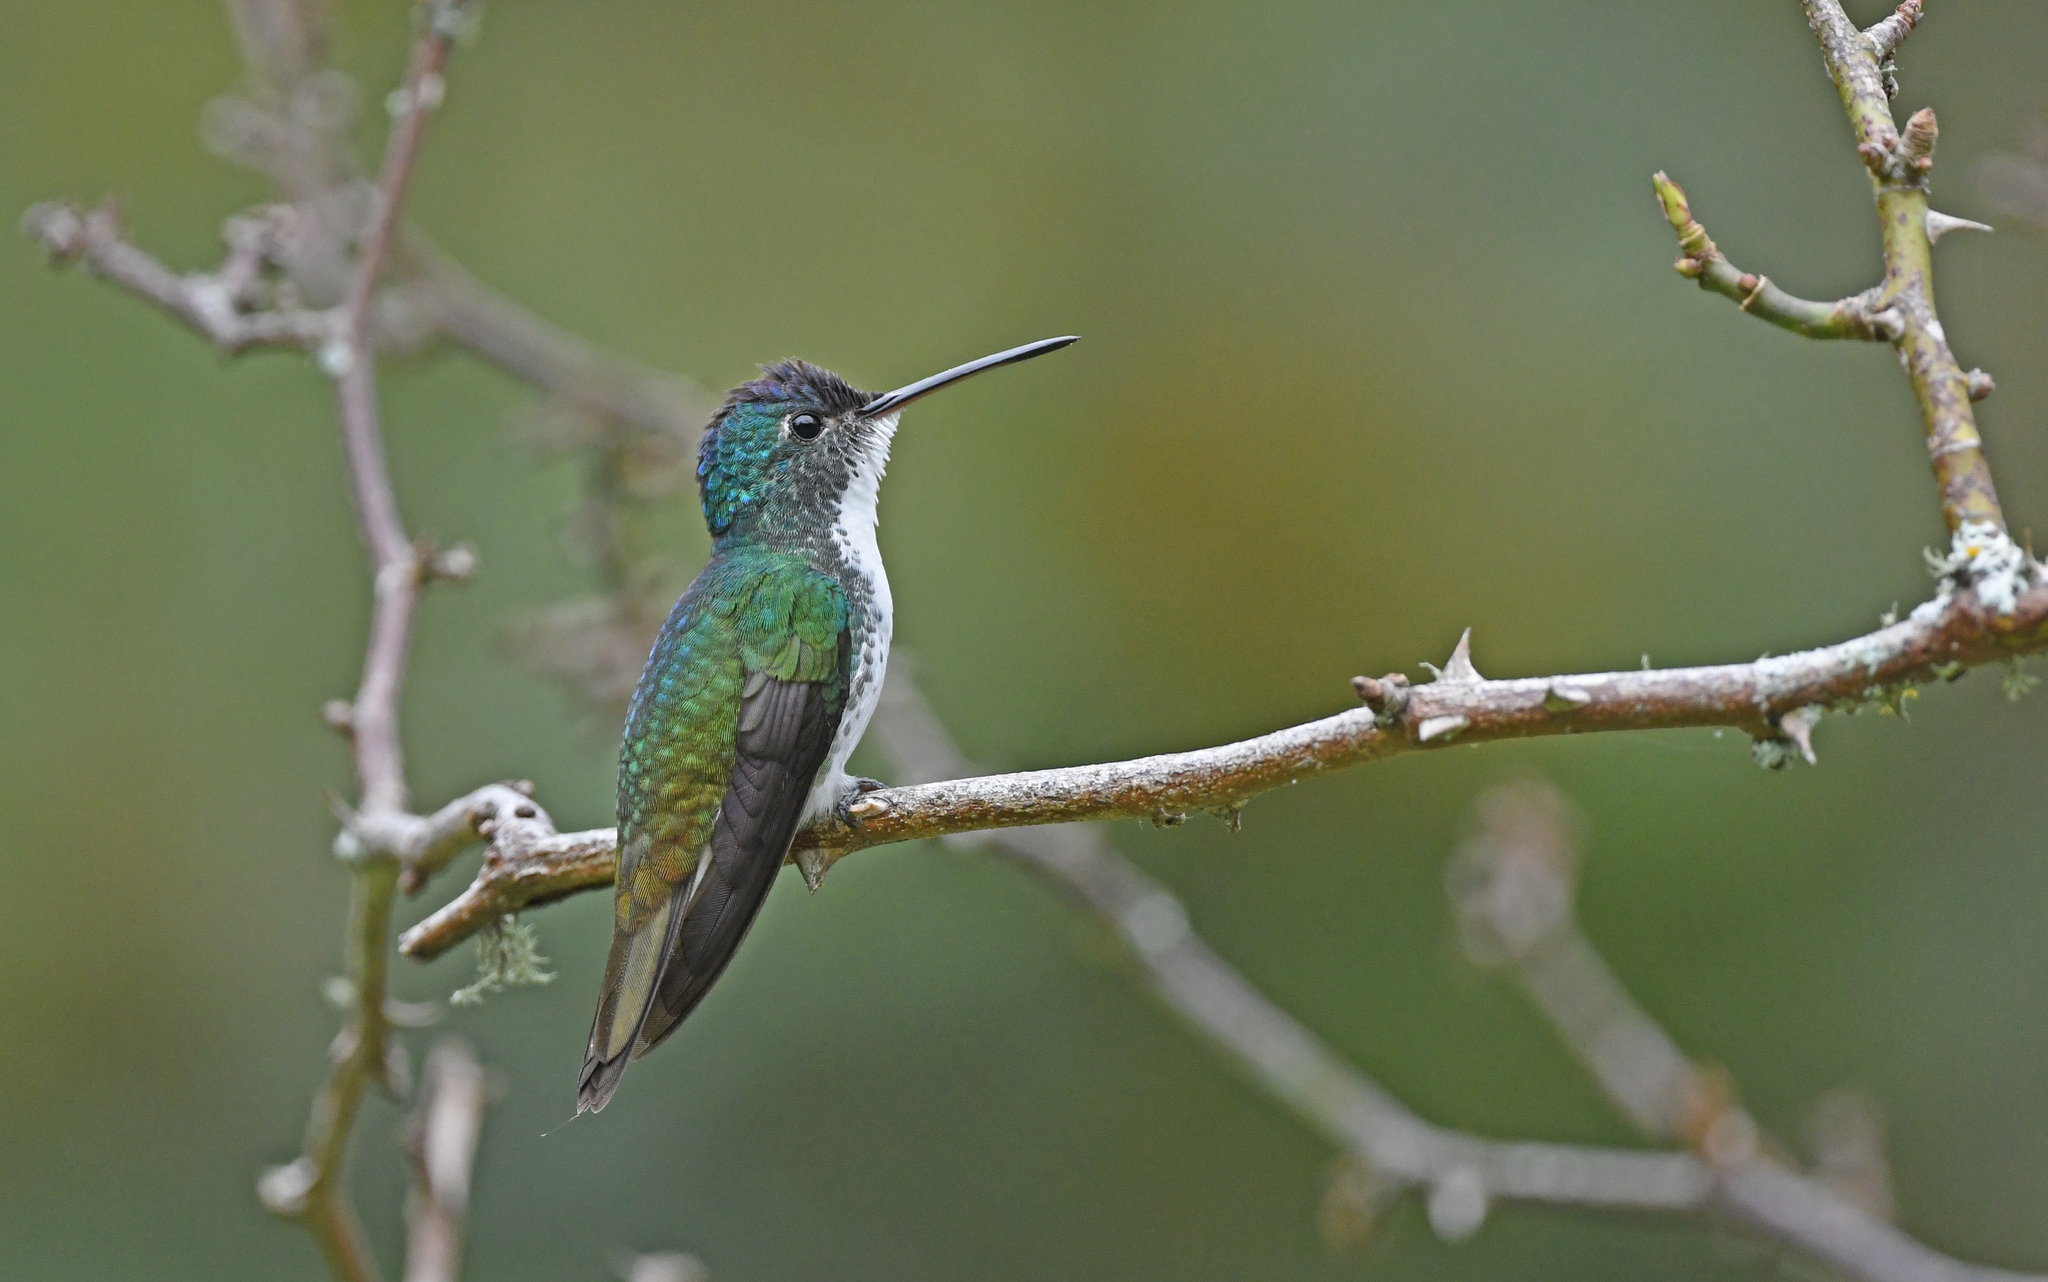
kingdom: Animalia
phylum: Chordata
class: Aves
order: Apodiformes
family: Trochilidae
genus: Uranomitra
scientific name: Uranomitra franciae
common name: Andean emerald
